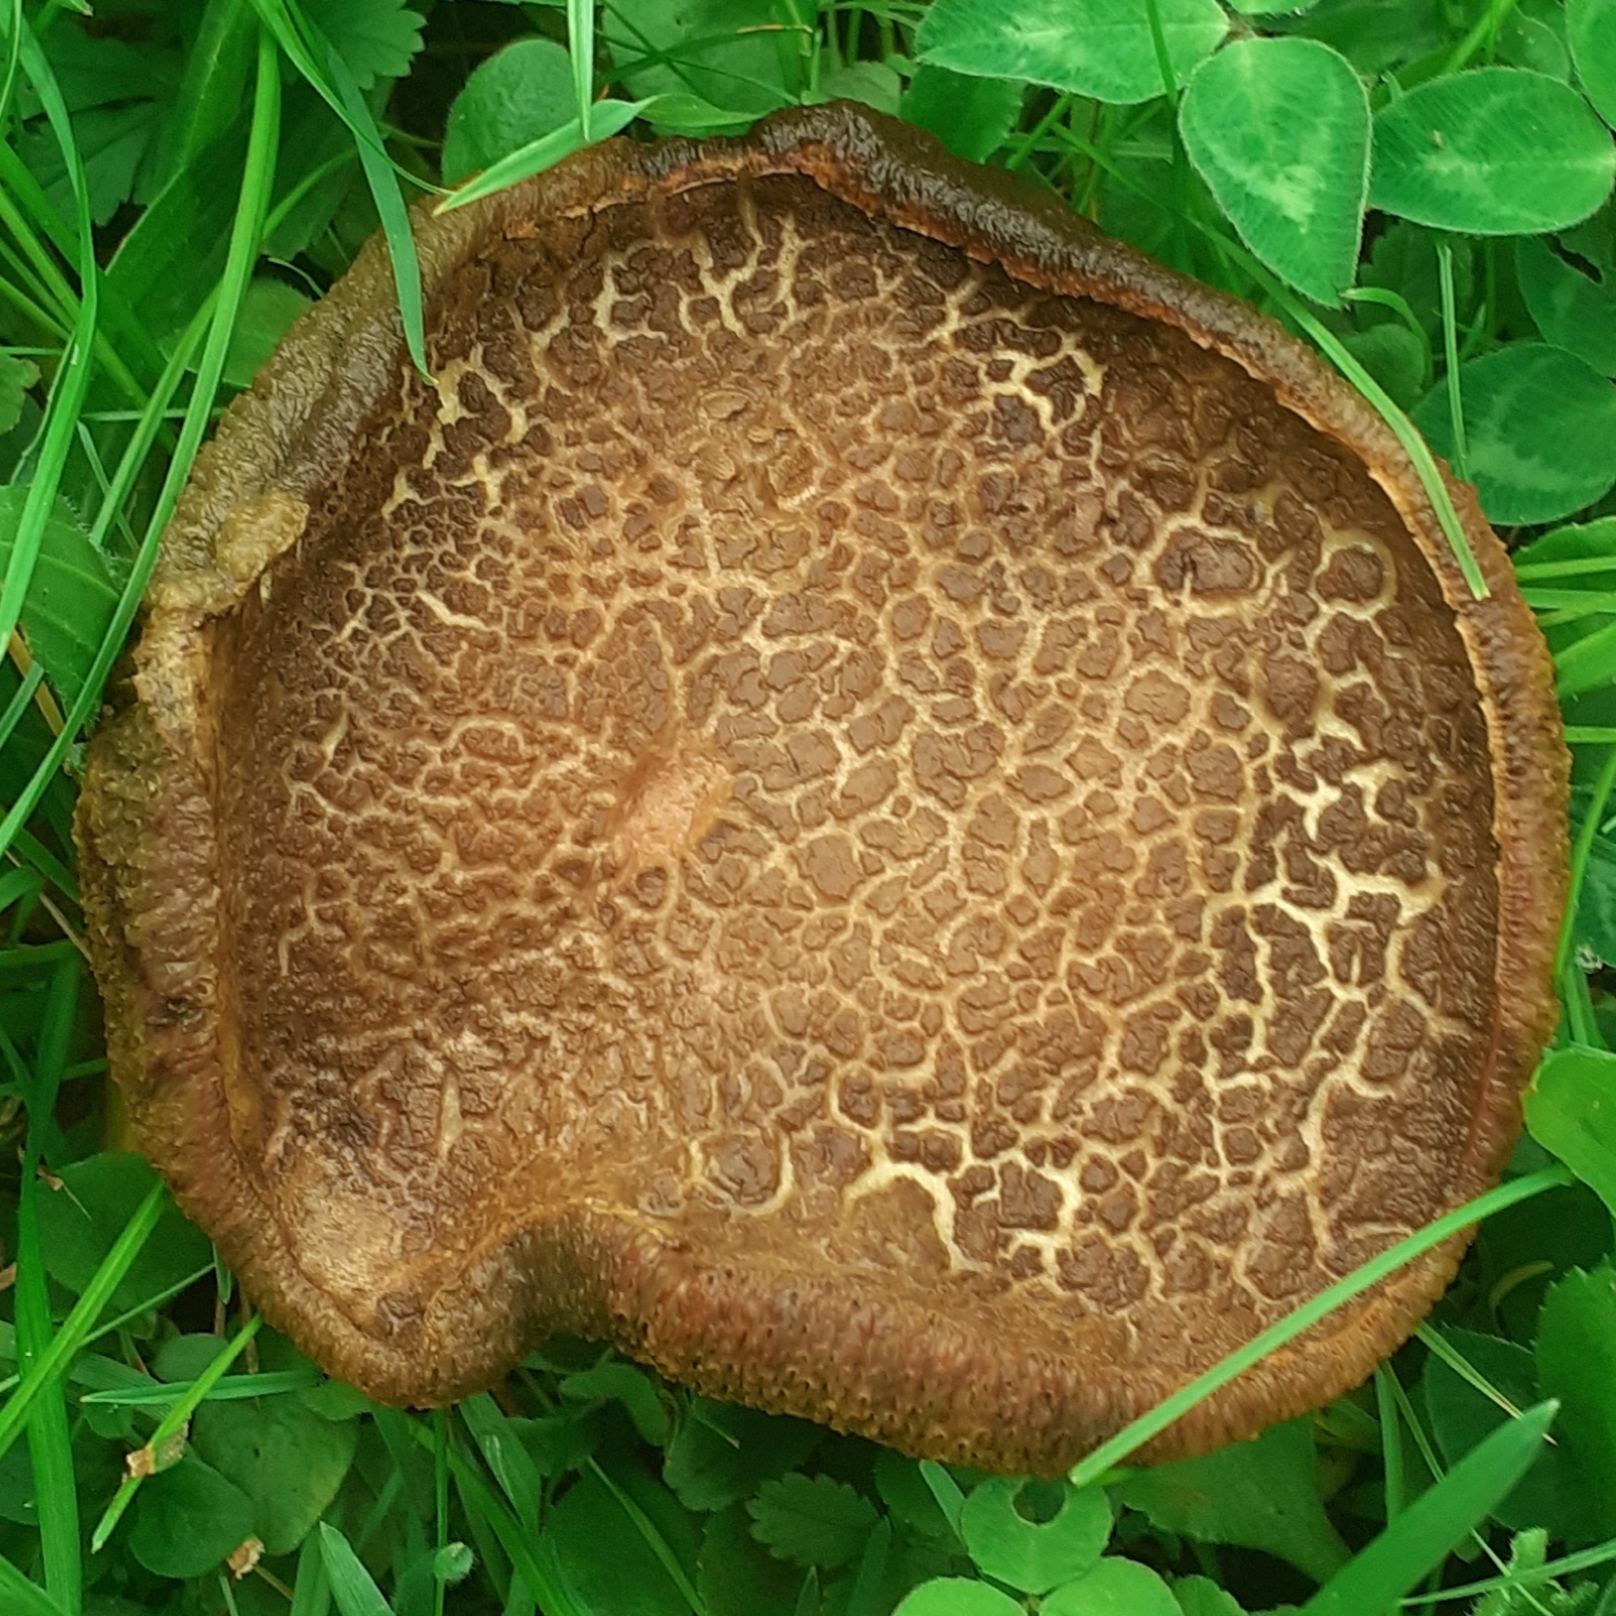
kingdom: Fungi
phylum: Basidiomycota
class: Agaricomycetes
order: Boletales
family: Boletaceae
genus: Xerocomellus
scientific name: Xerocomellus chrysenteron
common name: Red-cracking bolete
